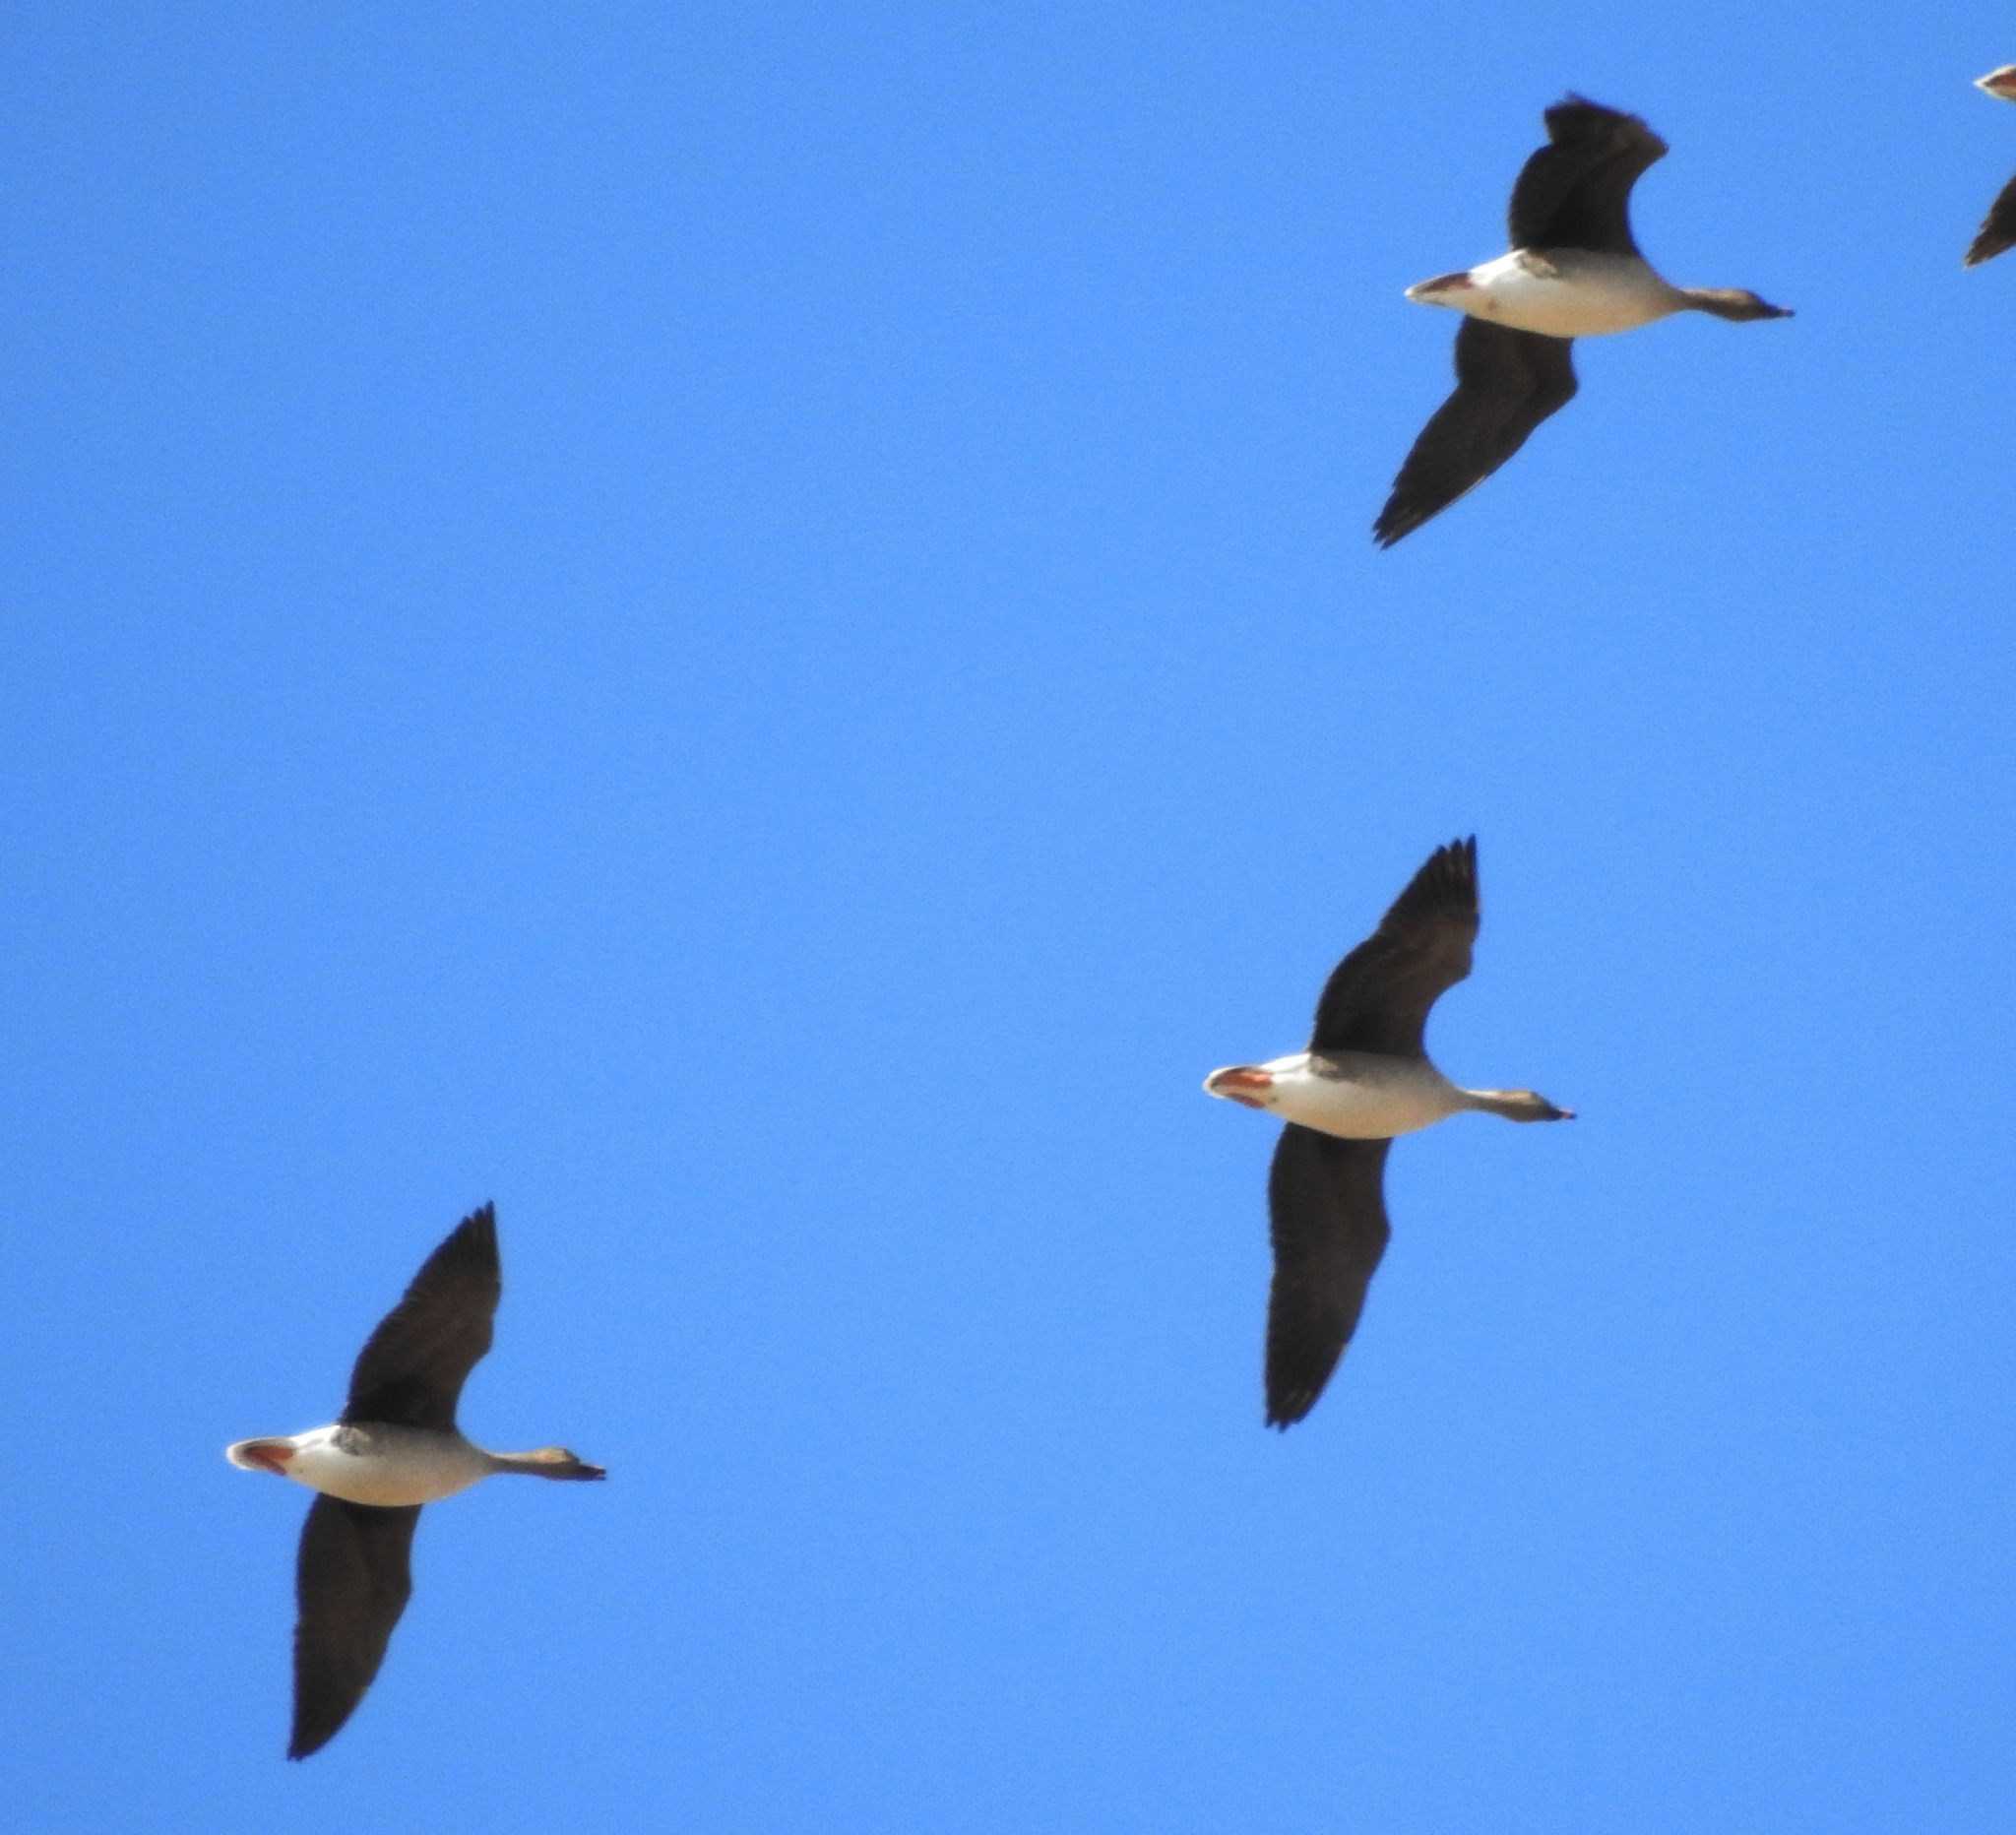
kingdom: Animalia
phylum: Chordata
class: Aves
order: Anseriformes
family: Anatidae
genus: Anser
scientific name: Anser fabalis
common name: Bean goose
